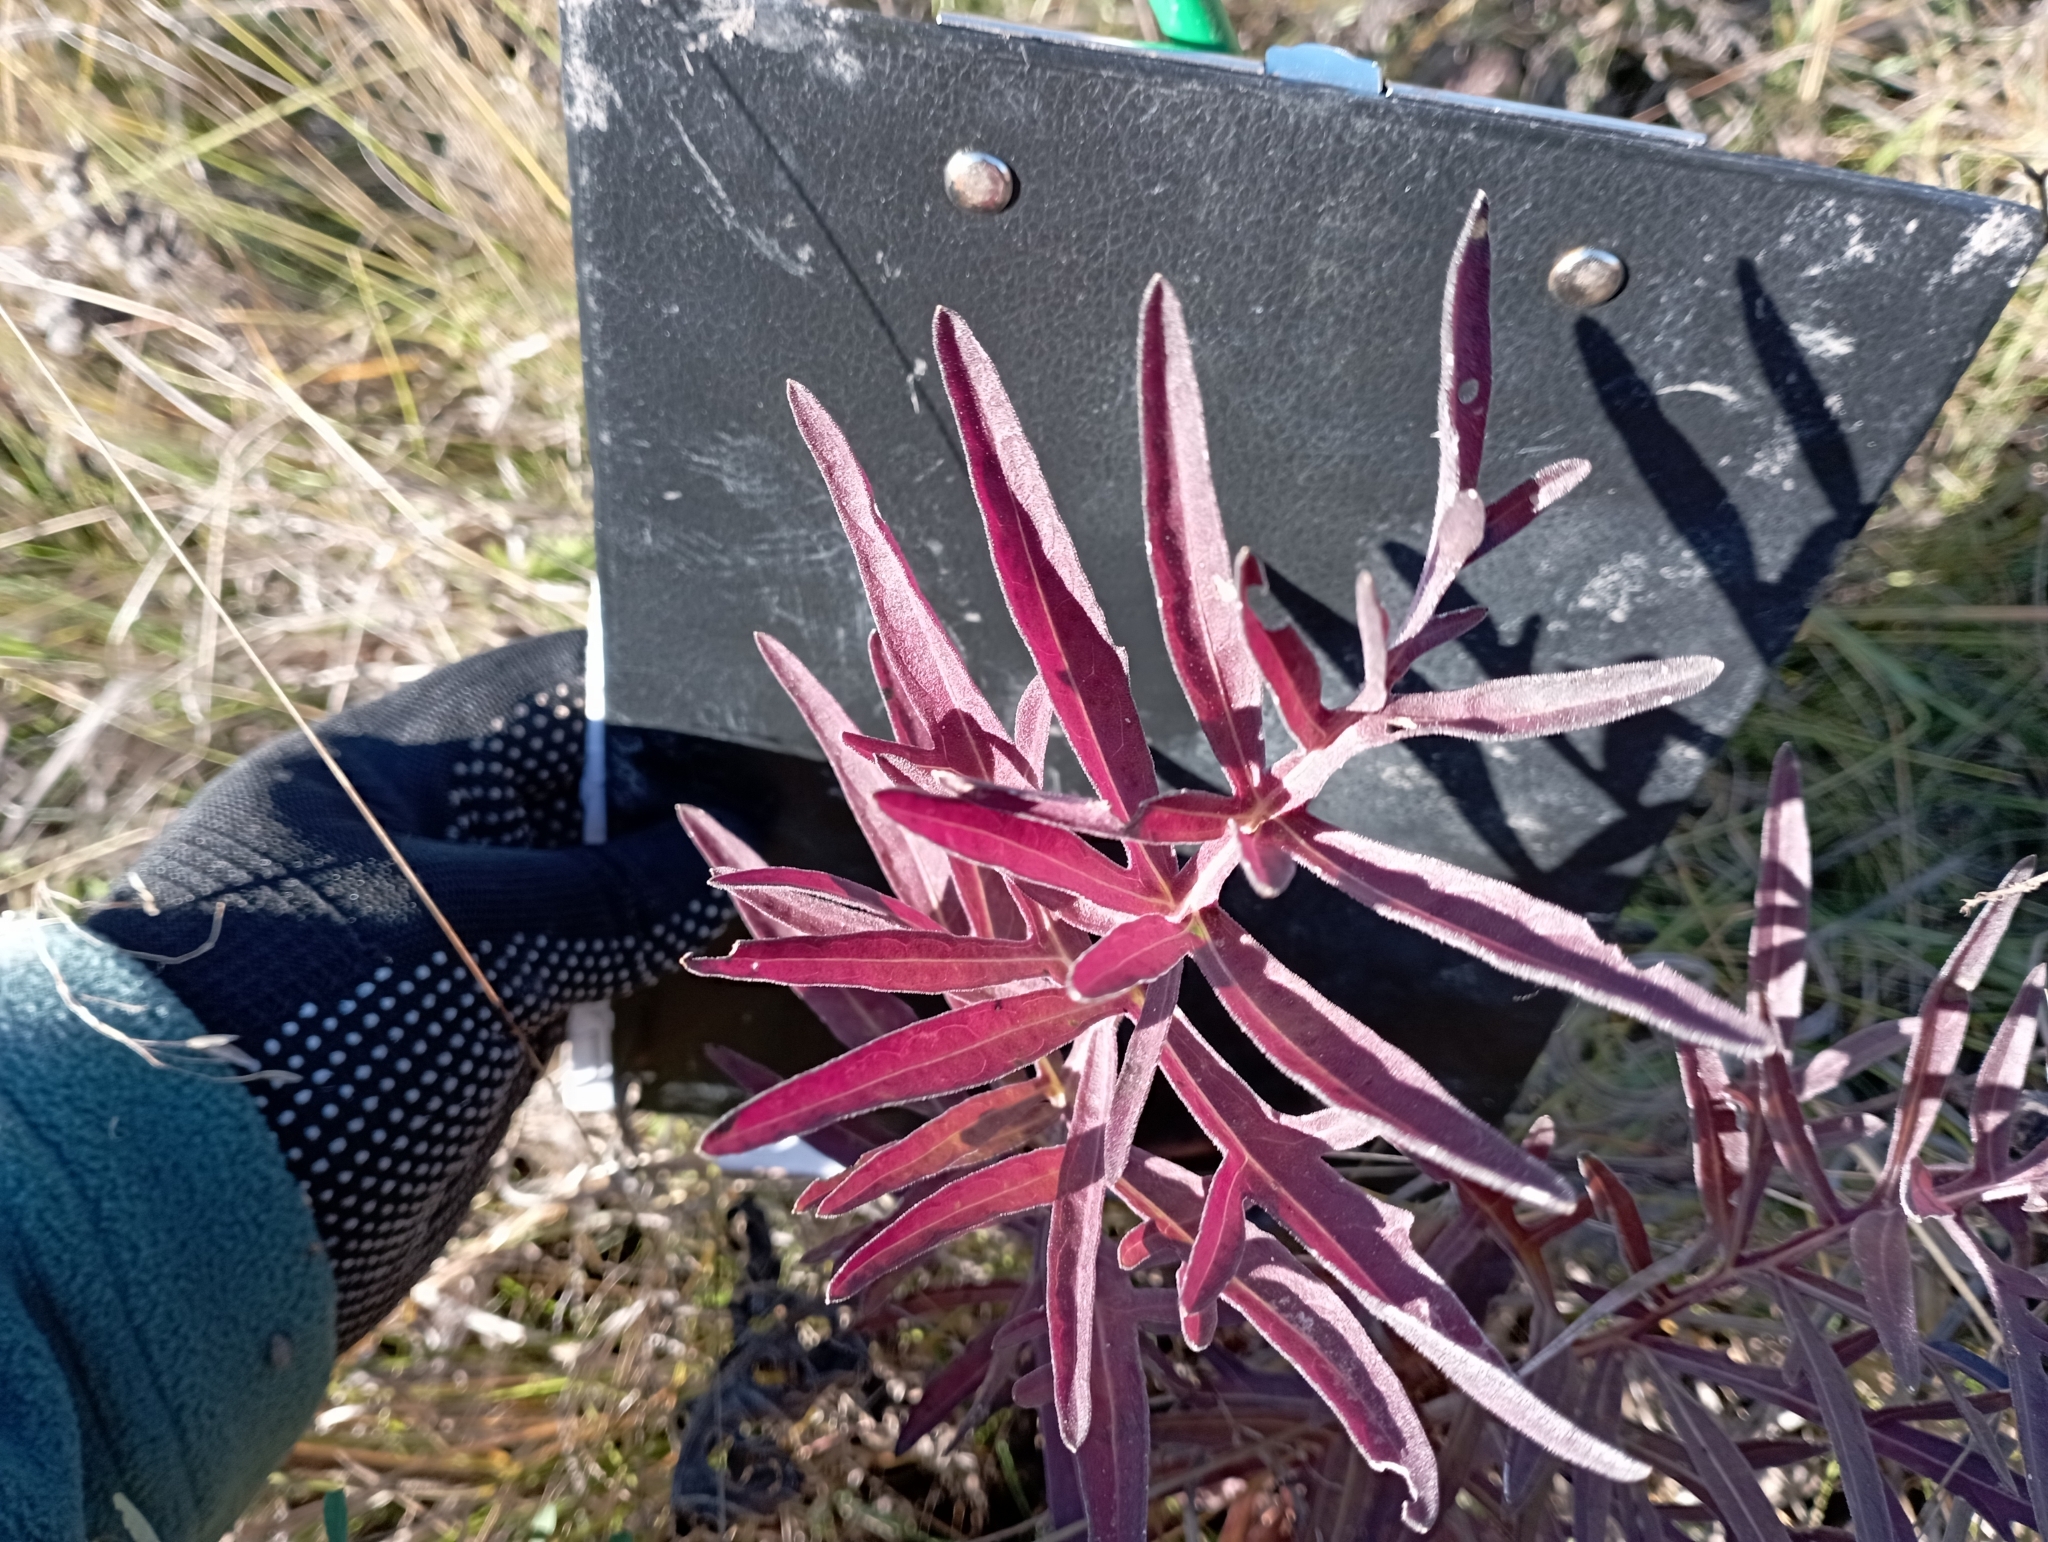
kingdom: Plantae
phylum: Tracheophyta
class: Magnoliopsida
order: Asterales
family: Asteraceae
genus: Centaurea
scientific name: Centaurea scabiosa
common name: Greater knapweed
